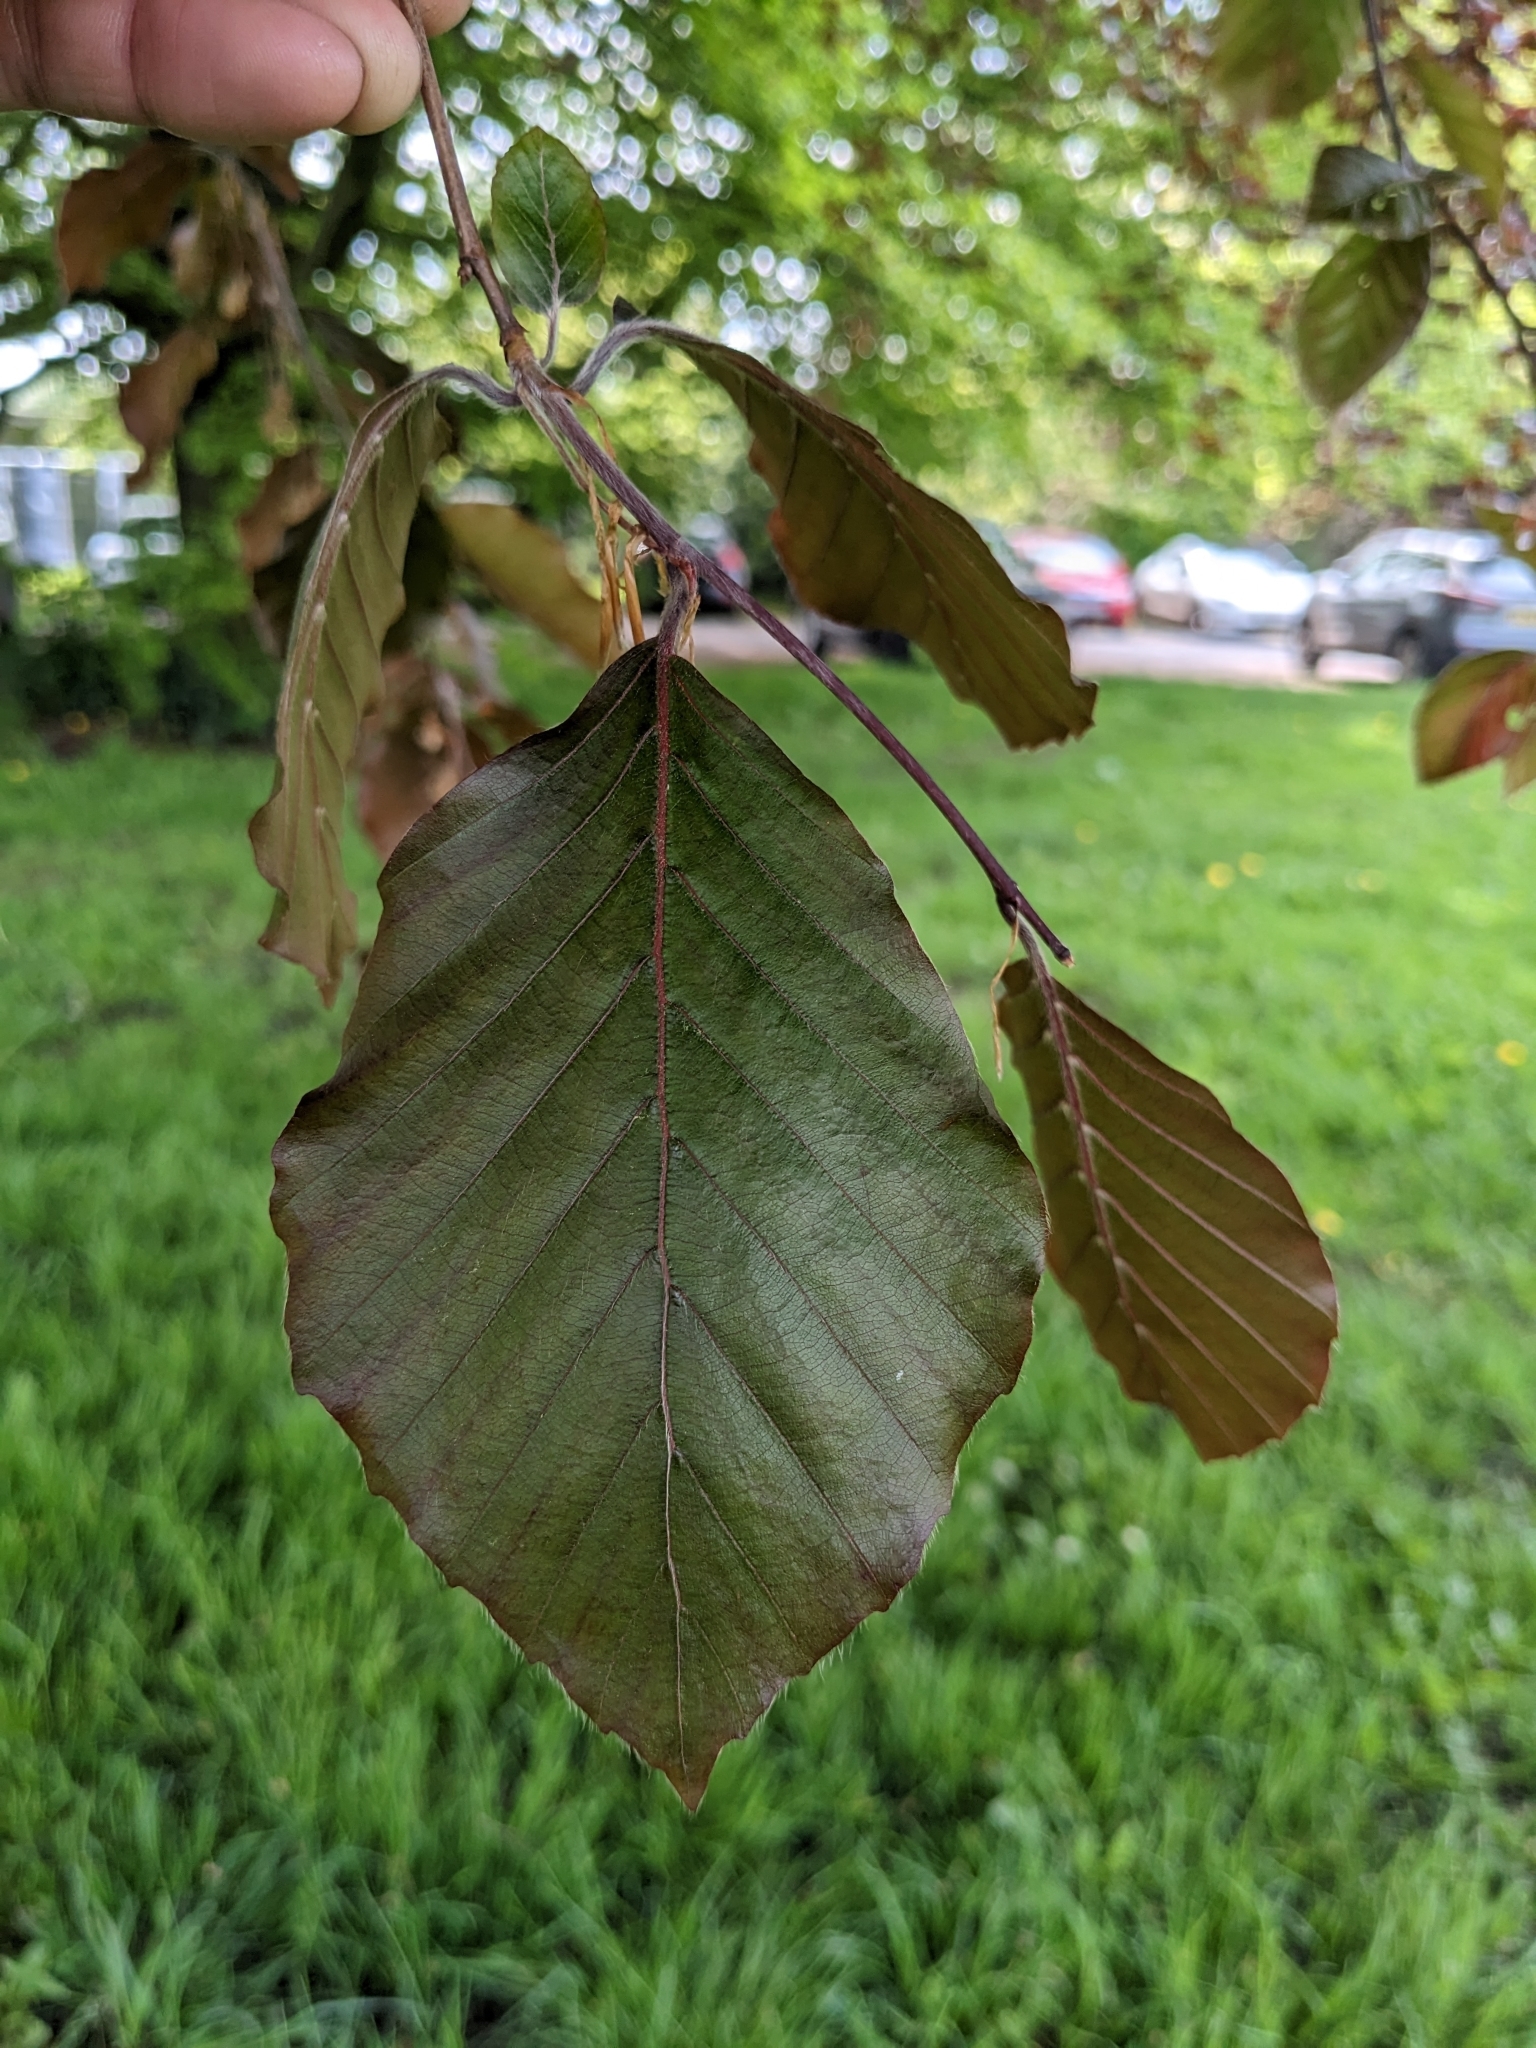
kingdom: Plantae
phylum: Tracheophyta
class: Magnoliopsida
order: Fagales
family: Fagaceae
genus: Fagus
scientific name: Fagus sylvatica
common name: Beech
